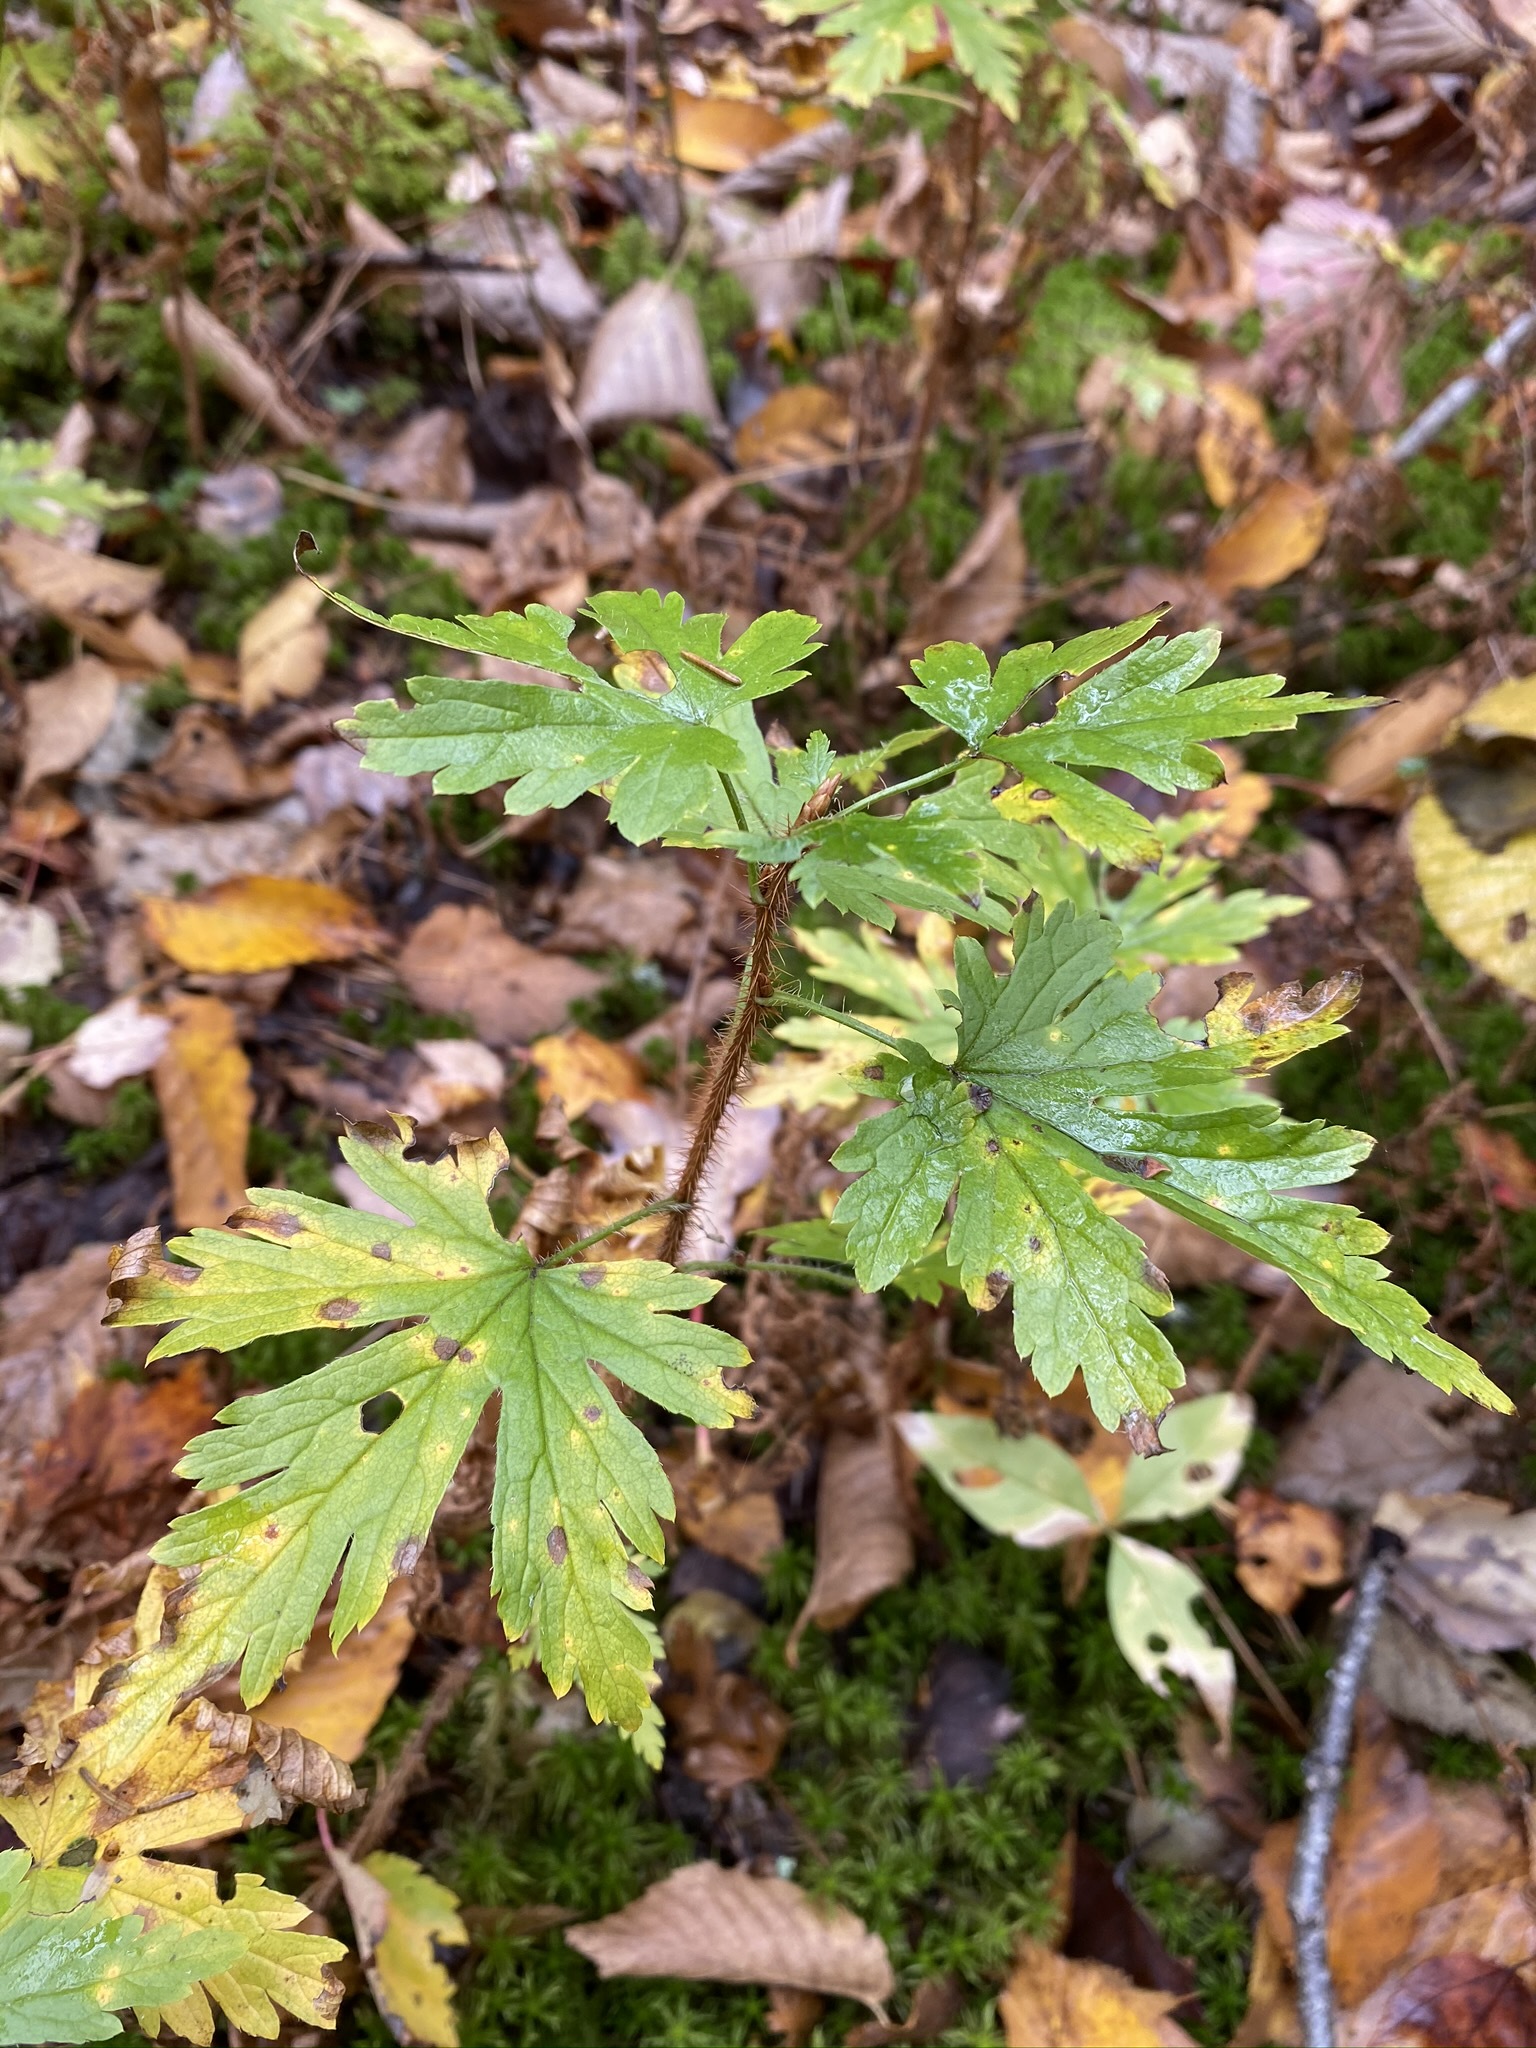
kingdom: Plantae
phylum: Tracheophyta
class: Magnoliopsida
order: Saxifragales
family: Grossulariaceae
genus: Ribes
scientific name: Ribes lacustre
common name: Black gooseberry
